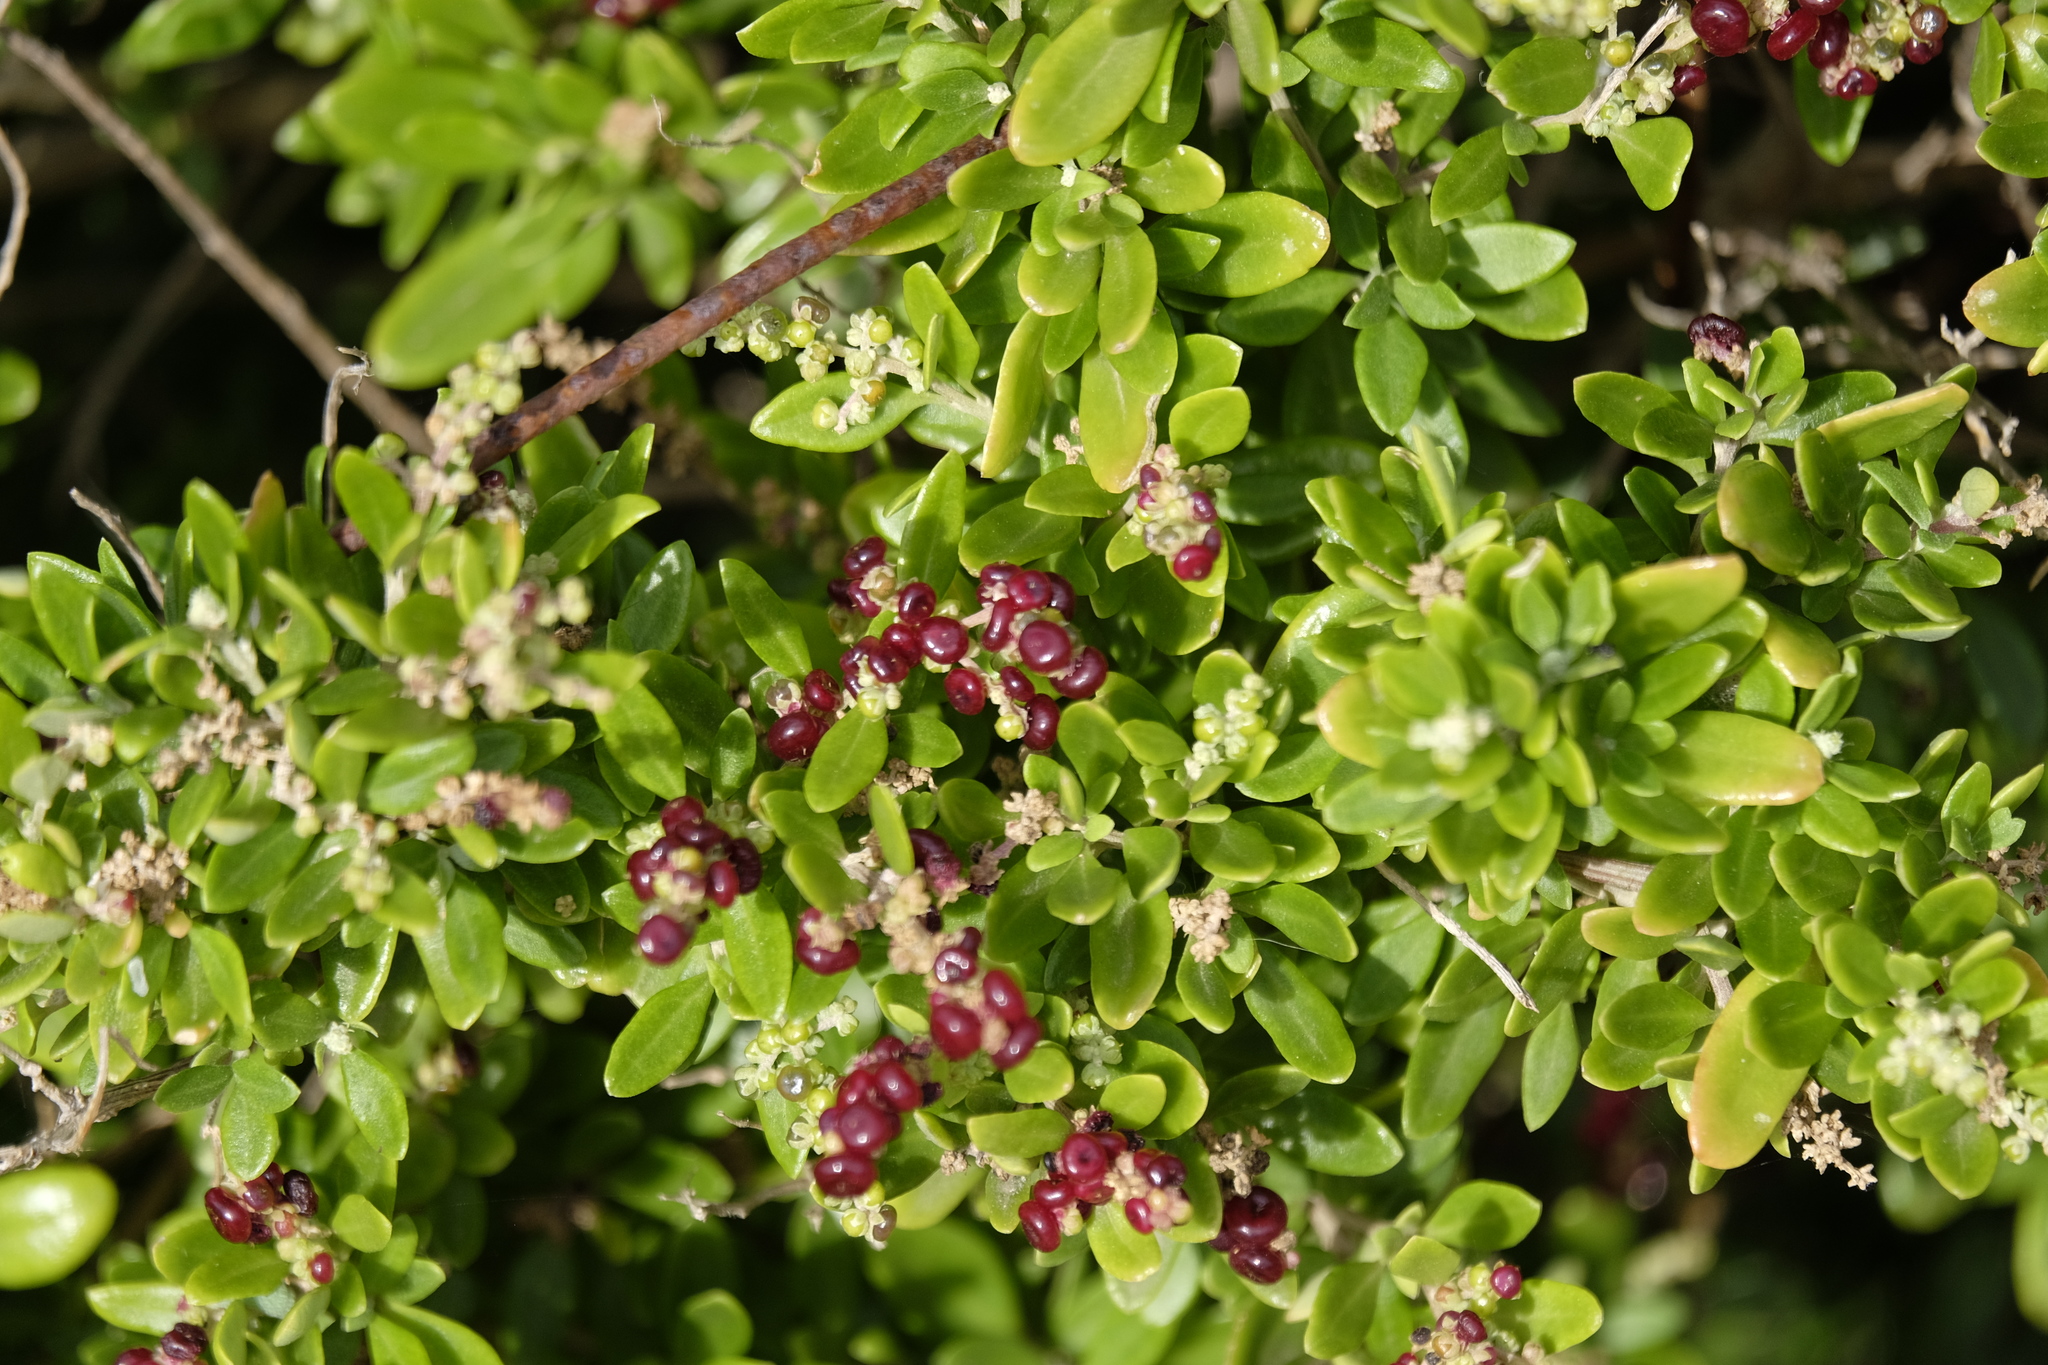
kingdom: Plantae
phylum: Tracheophyta
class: Magnoliopsida
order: Caryophyllales
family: Amaranthaceae
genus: Chenopodium
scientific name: Chenopodium candolleanum
